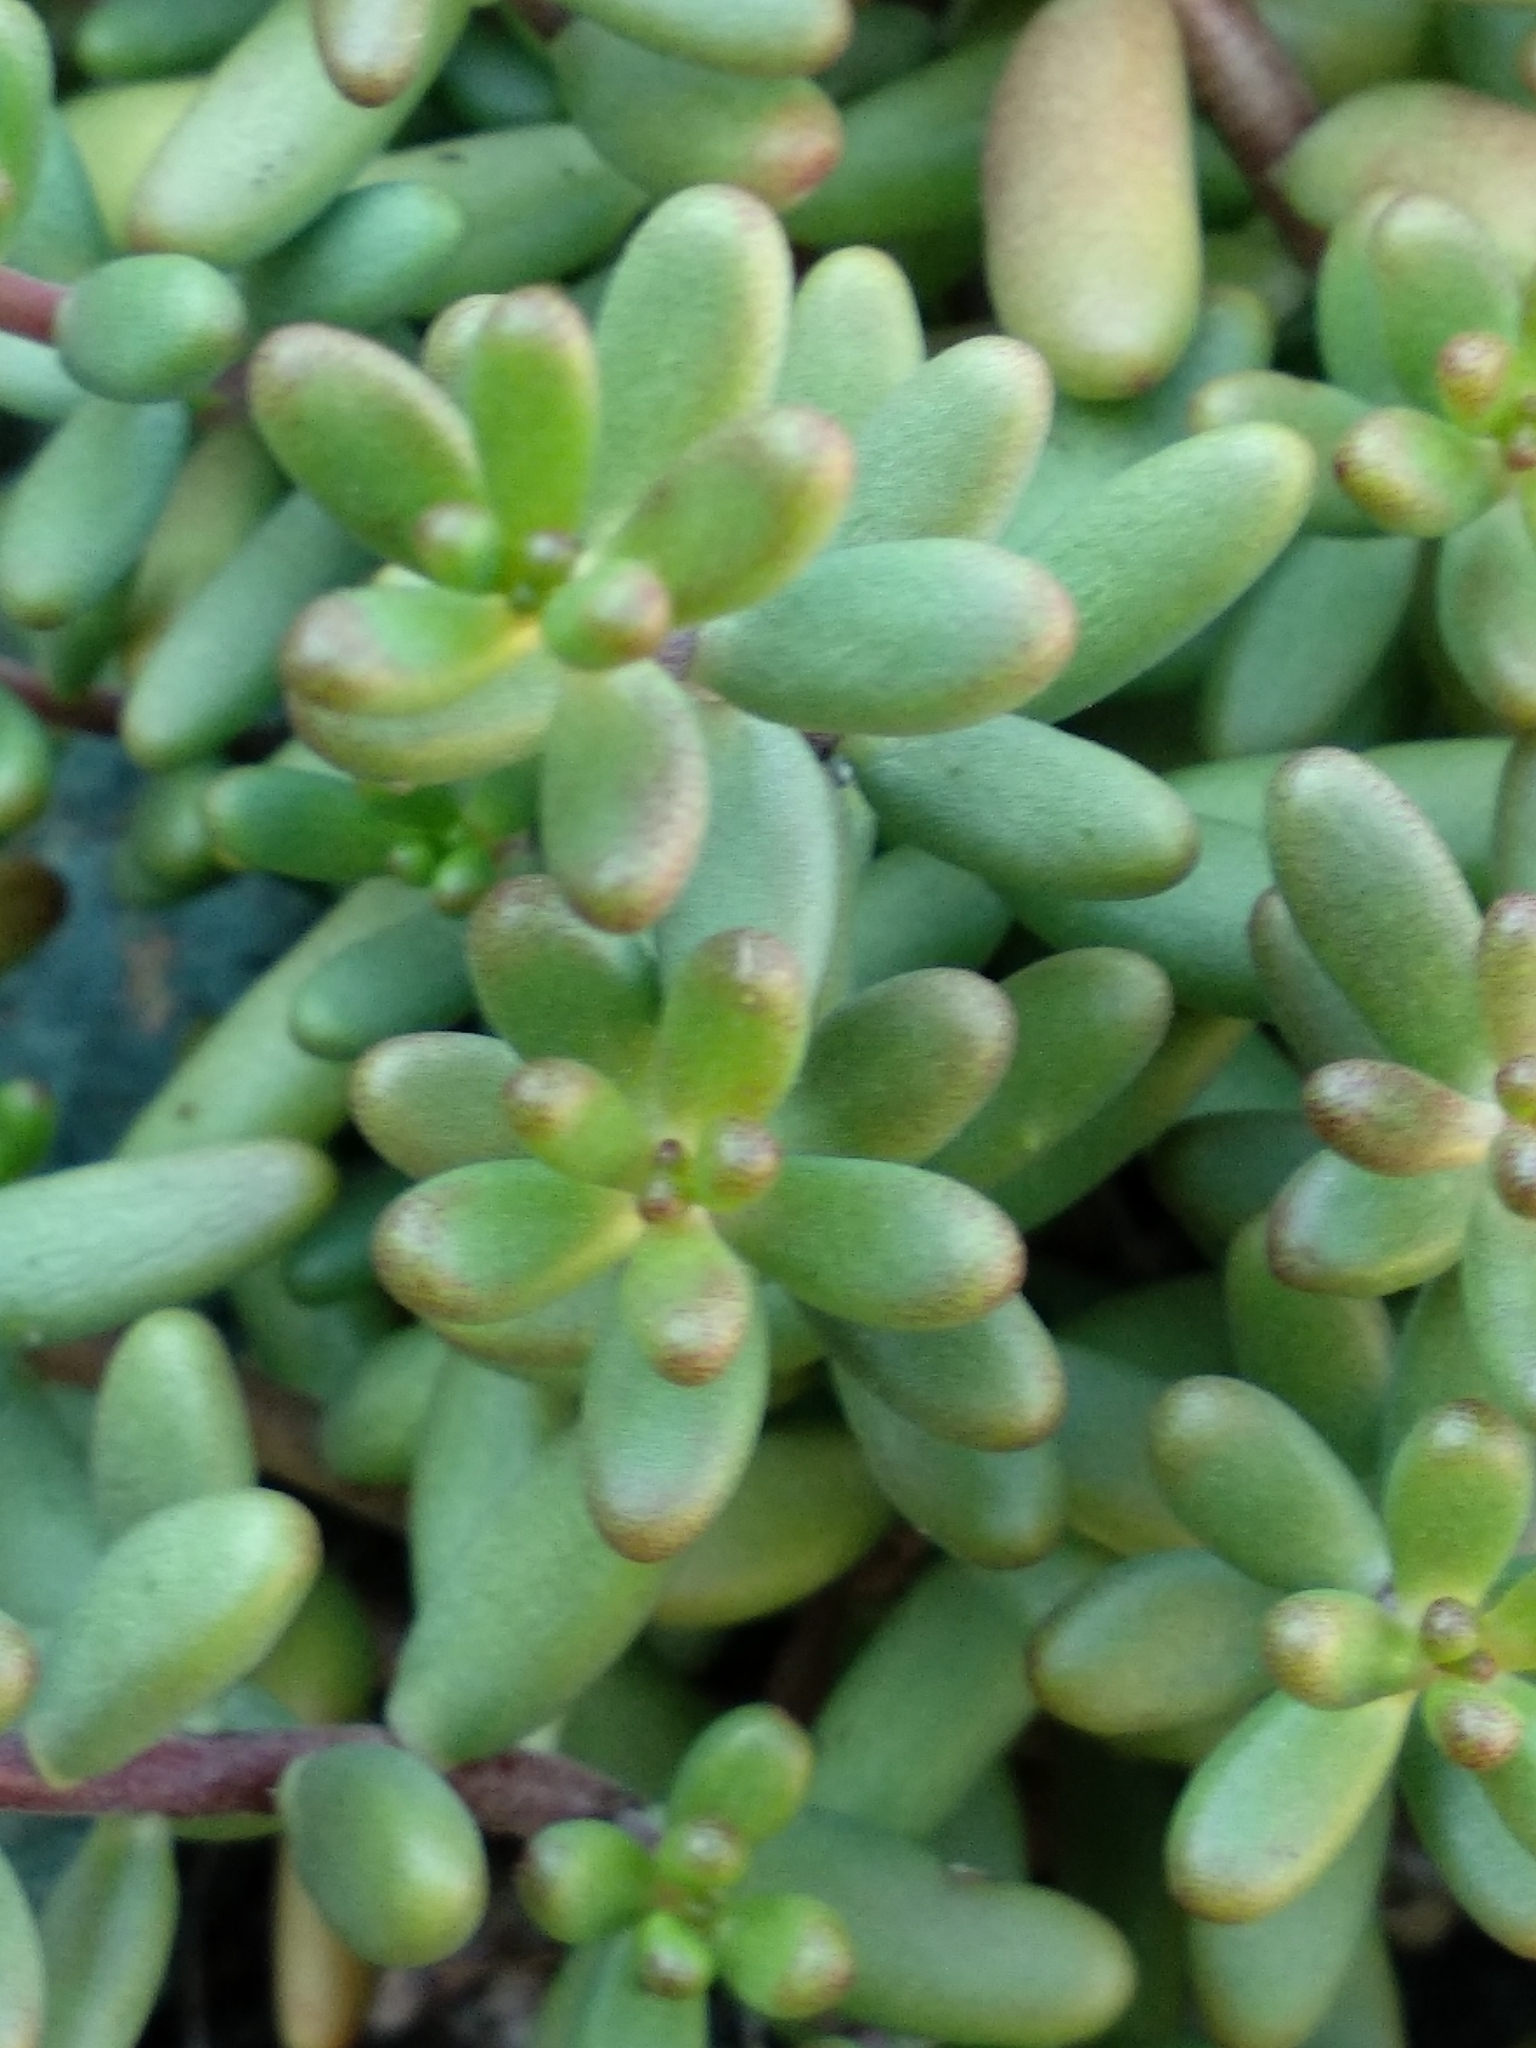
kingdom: Plantae
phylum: Tracheophyta
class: Magnoliopsida
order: Saxifragales
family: Crassulaceae
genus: Sedum
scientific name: Sedum album
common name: White stonecrop
